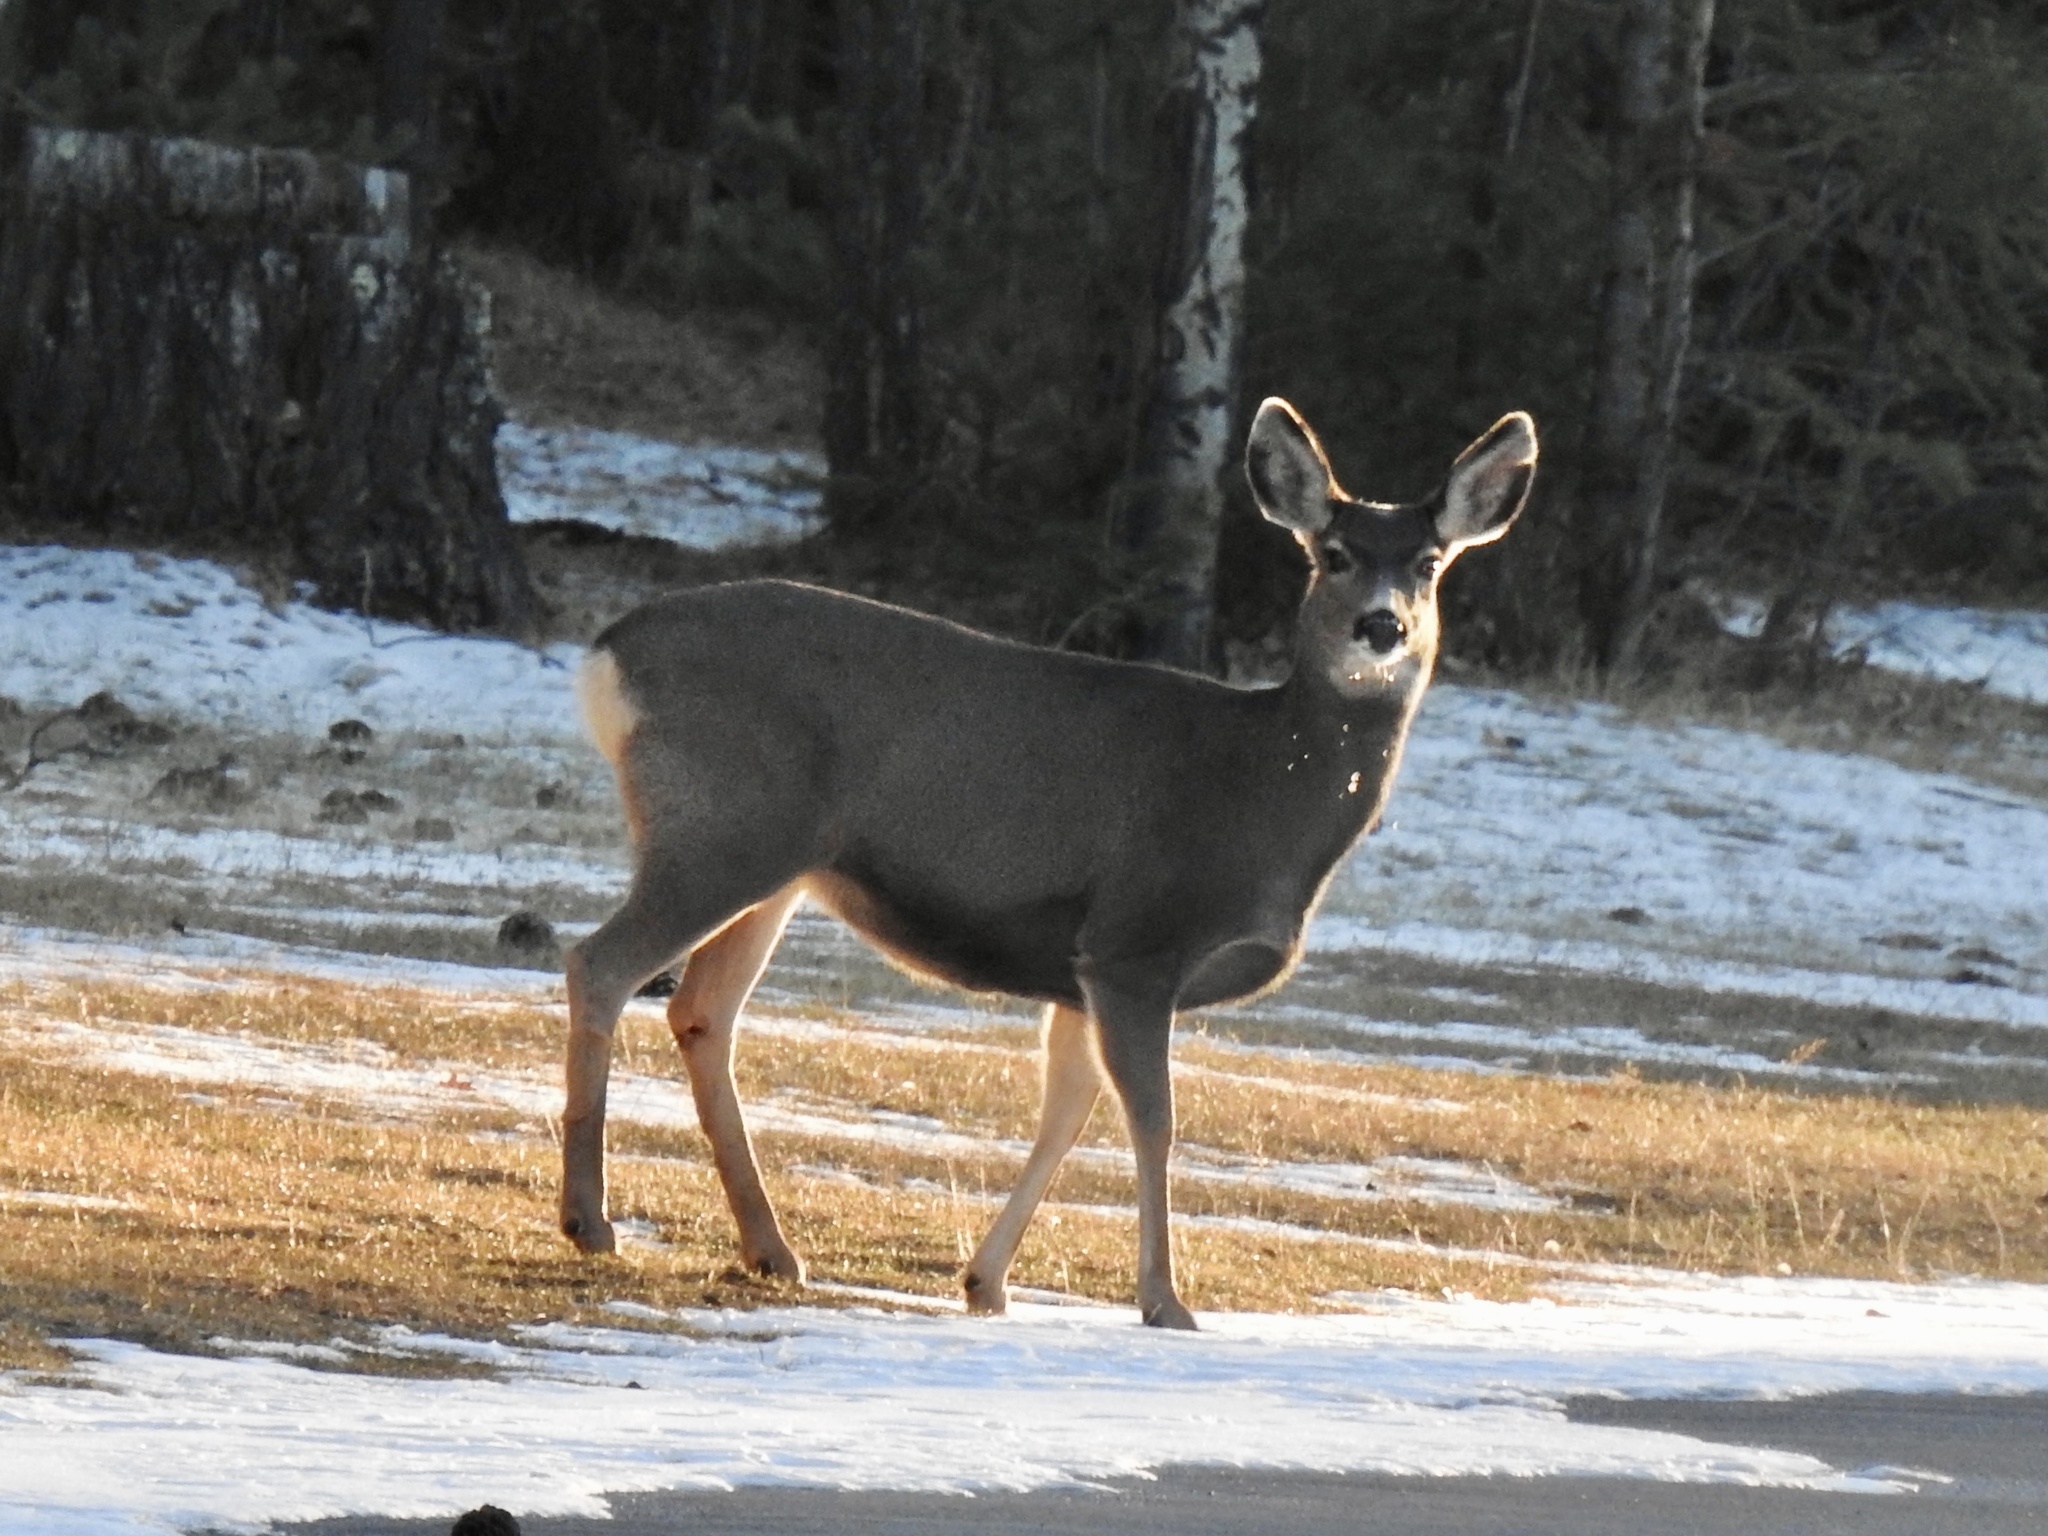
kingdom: Animalia
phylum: Chordata
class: Mammalia
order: Artiodactyla
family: Cervidae
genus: Odocoileus
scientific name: Odocoileus hemionus
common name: Mule deer
